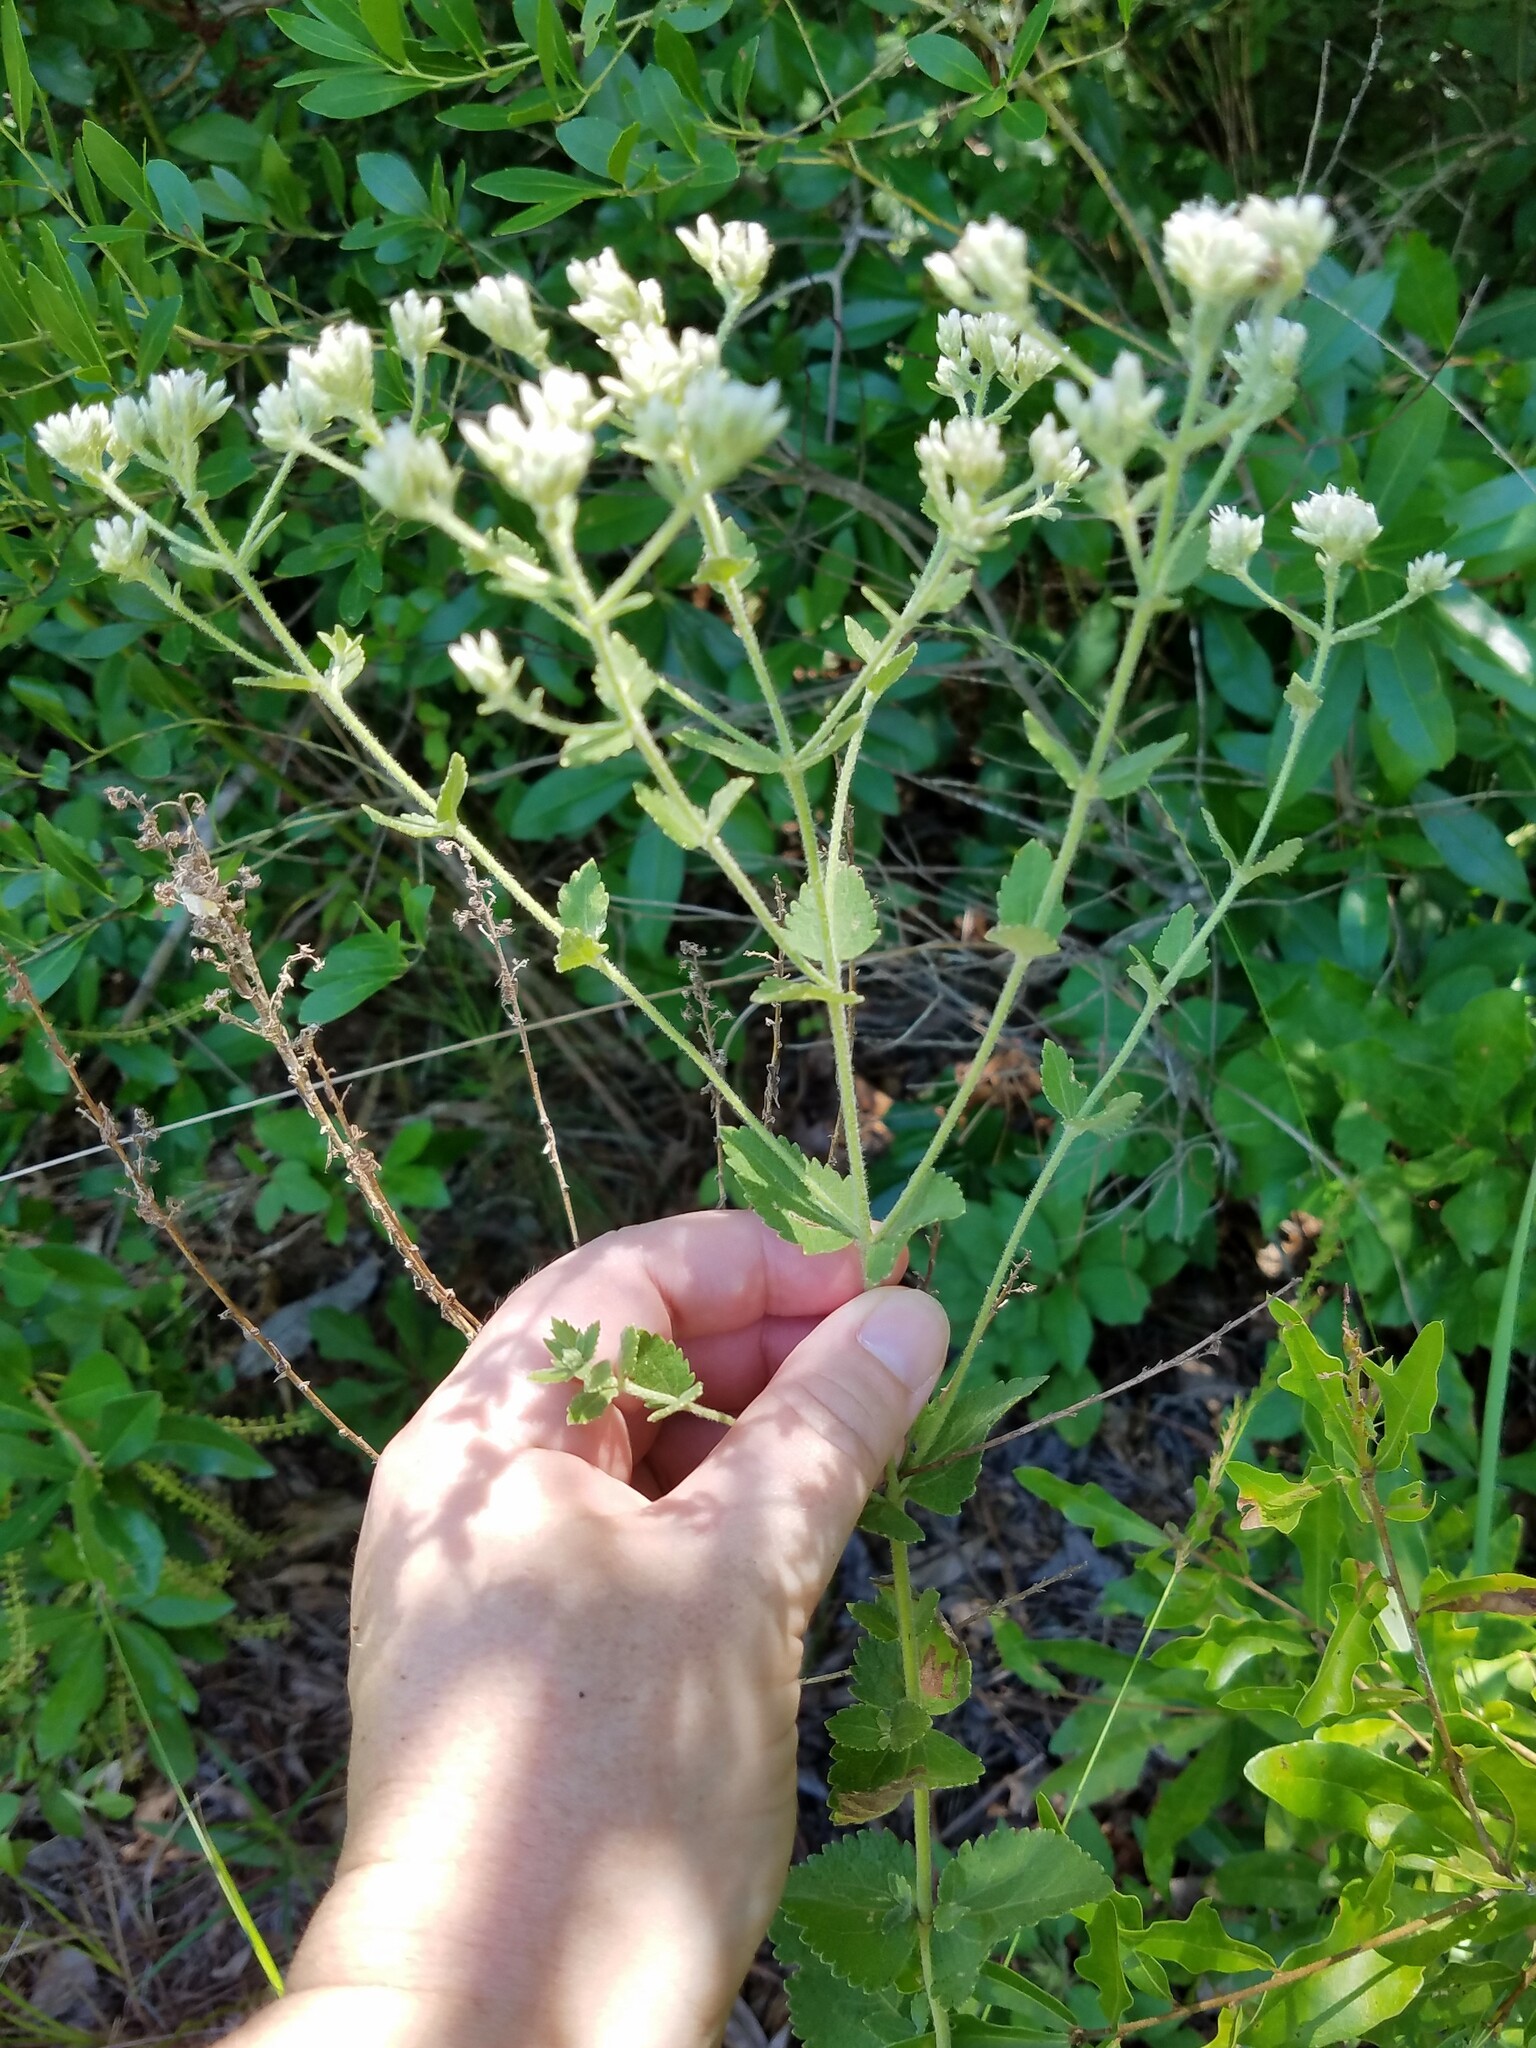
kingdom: Plantae
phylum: Tracheophyta
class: Magnoliopsida
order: Asterales
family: Asteraceae
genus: Eupatorium
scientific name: Eupatorium rotundifolium
